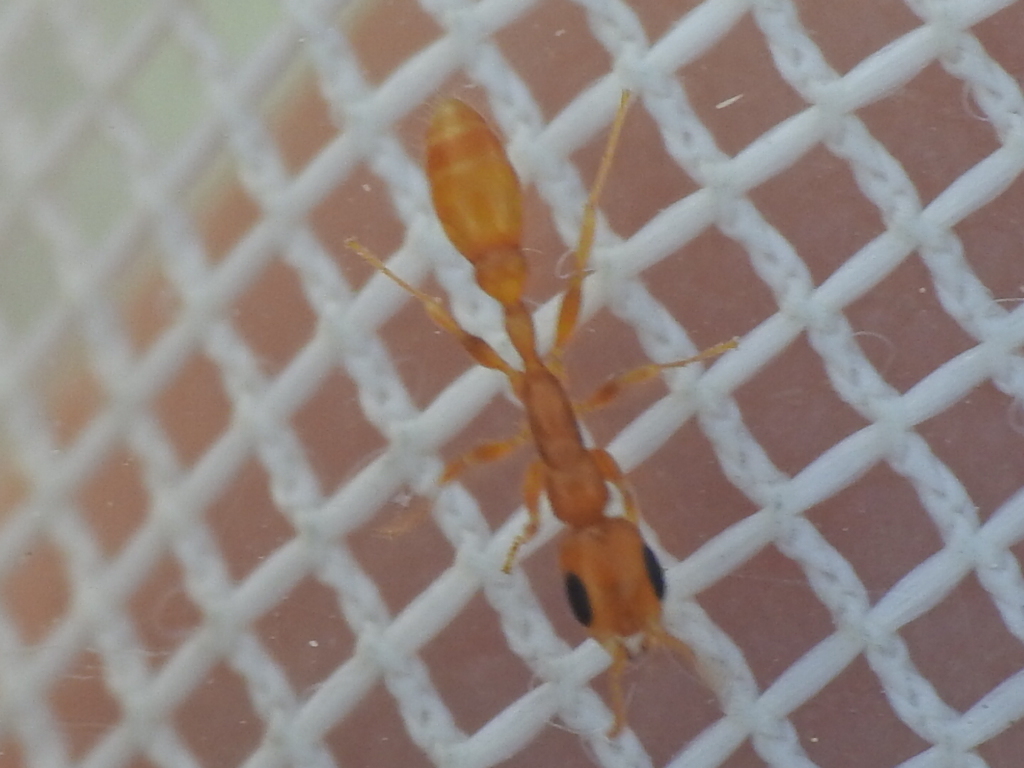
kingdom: Animalia
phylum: Arthropoda
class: Insecta
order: Hymenoptera
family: Formicidae
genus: Pseudomyrmex
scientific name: Pseudomyrmex pallidus
